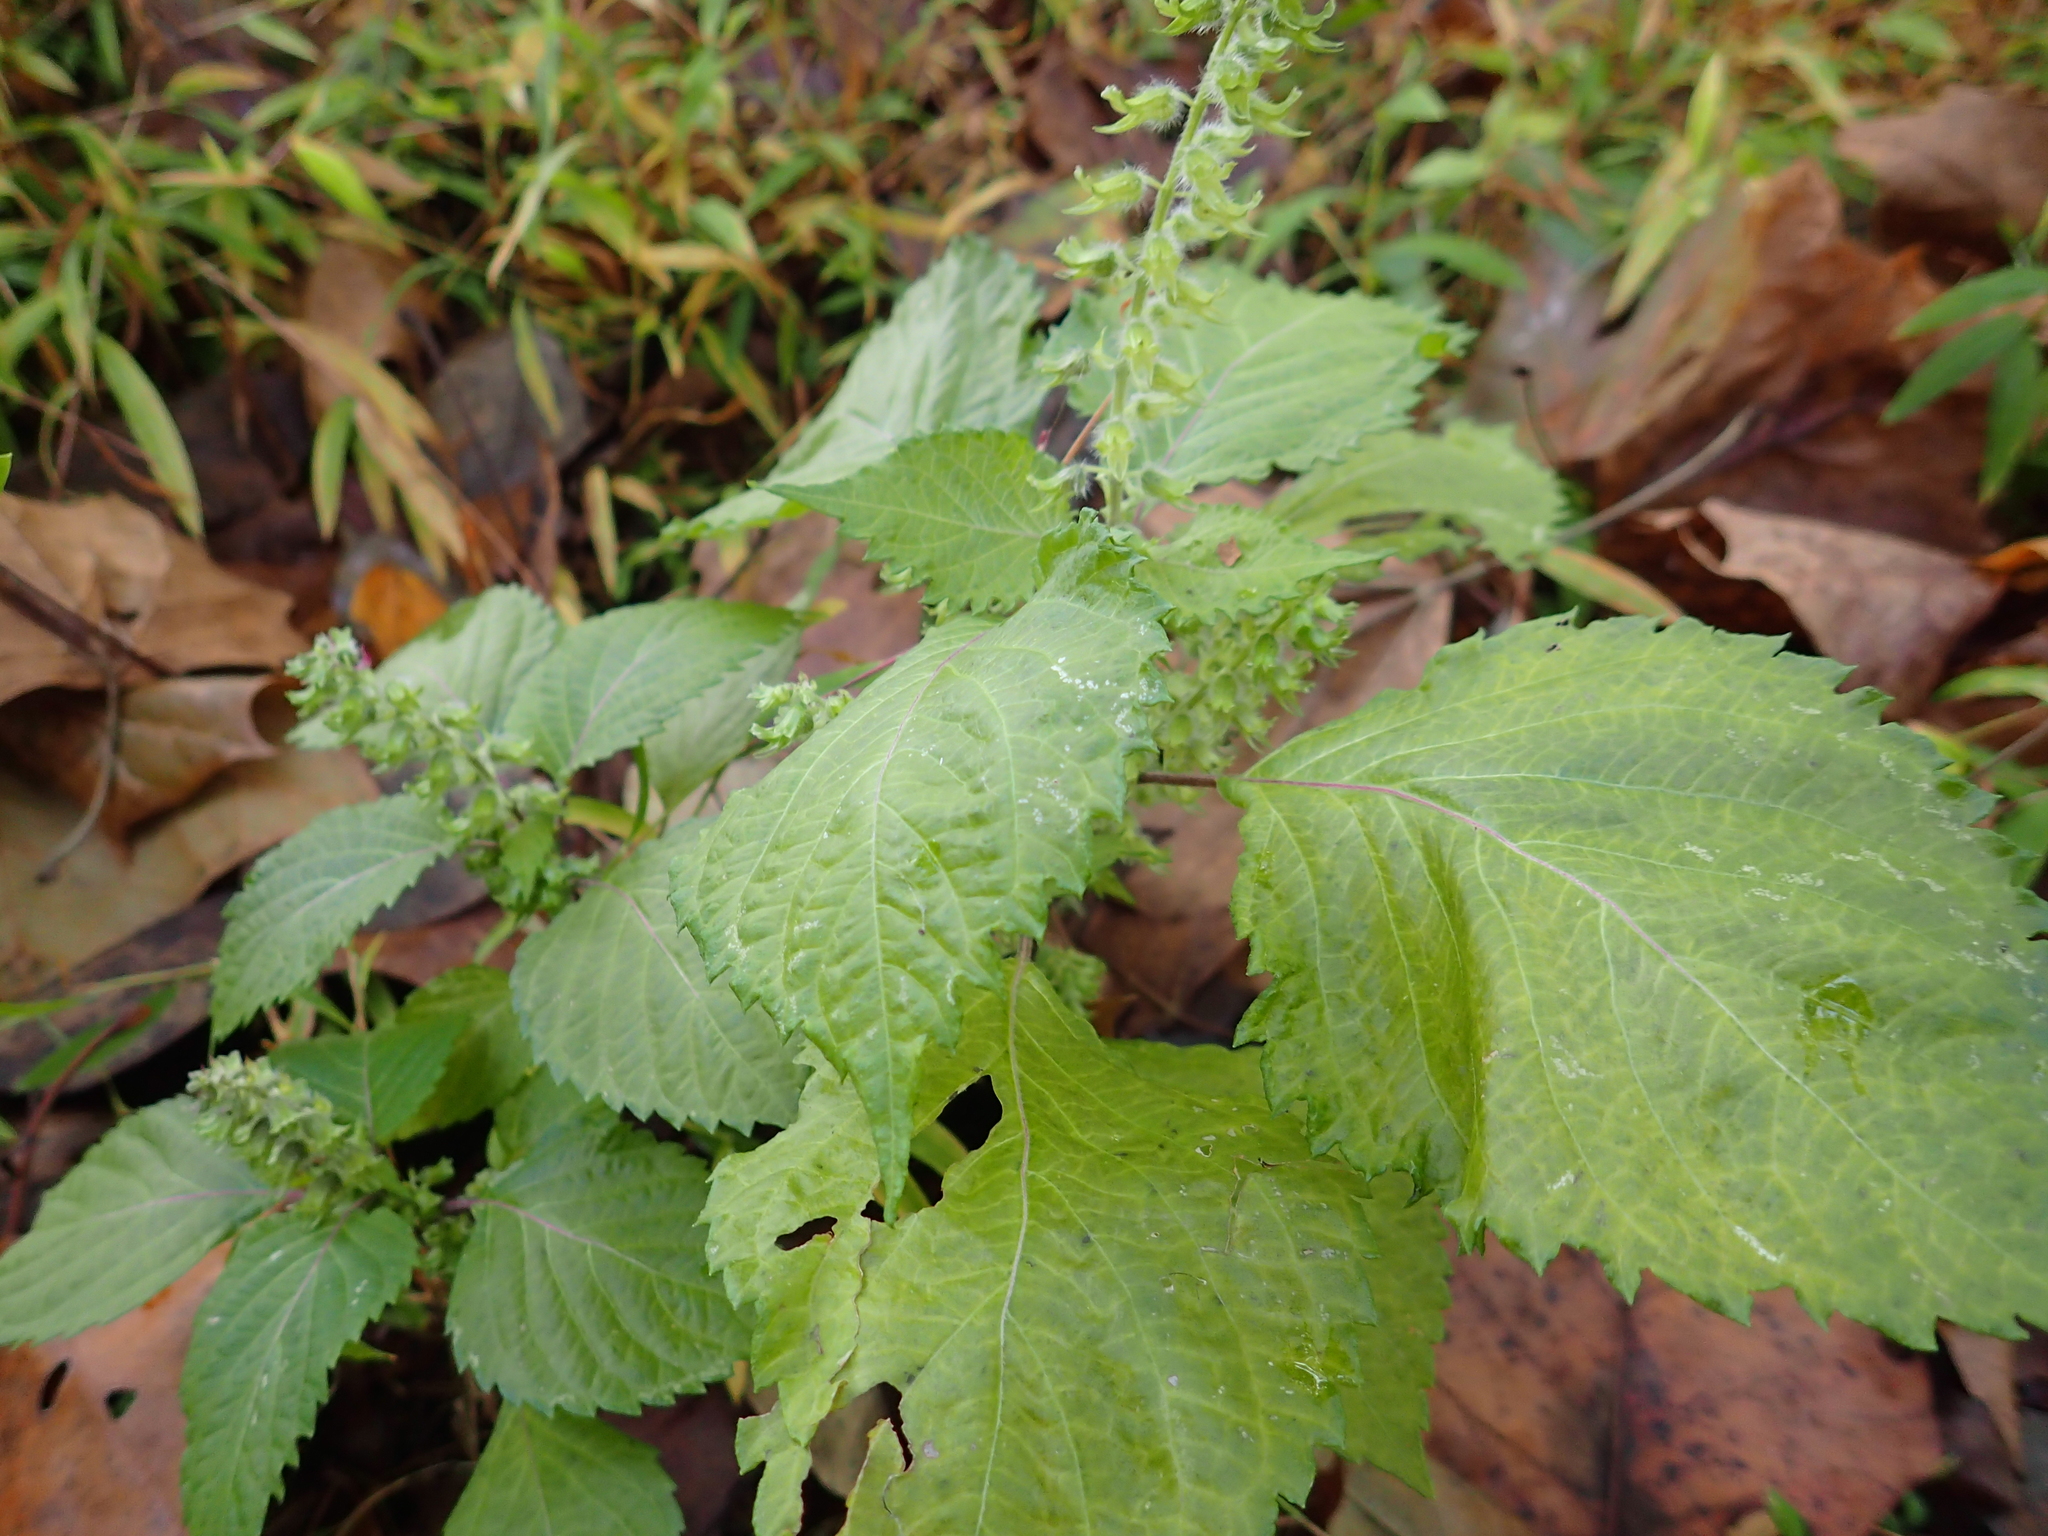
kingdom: Plantae
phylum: Tracheophyta
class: Magnoliopsida
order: Lamiales
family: Lamiaceae
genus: Perilla
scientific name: Perilla frutescens
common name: Perilla
